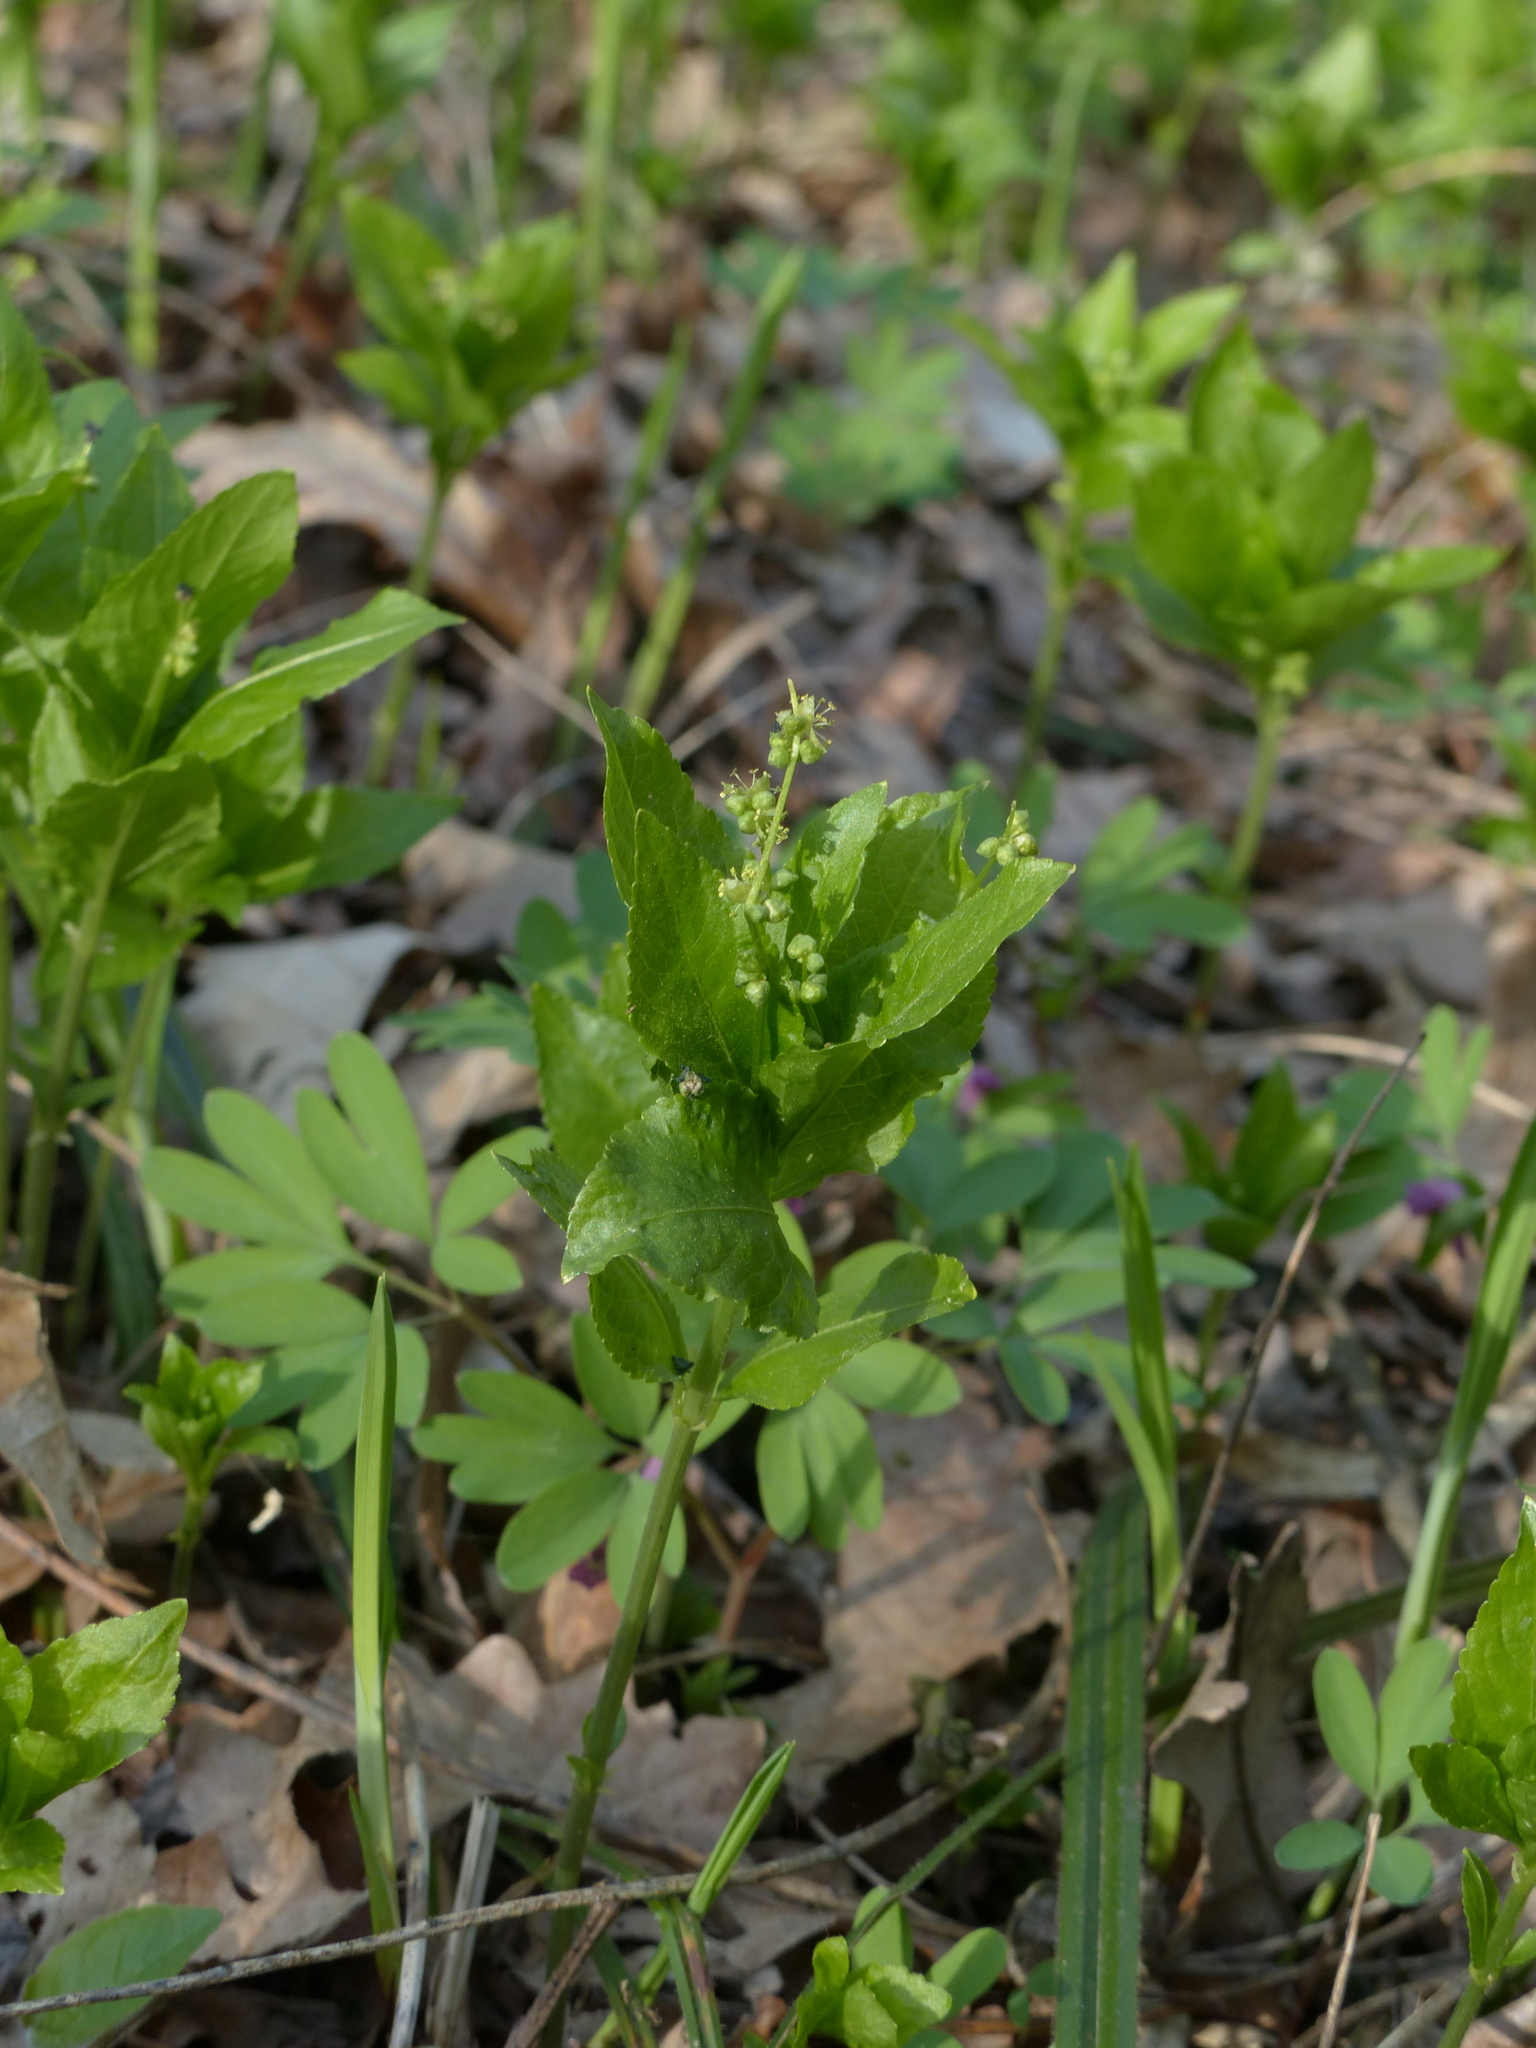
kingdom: Plantae
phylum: Tracheophyta
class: Magnoliopsida
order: Malpighiales
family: Euphorbiaceae
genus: Mercurialis
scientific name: Mercurialis perennis
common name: Dog mercury
